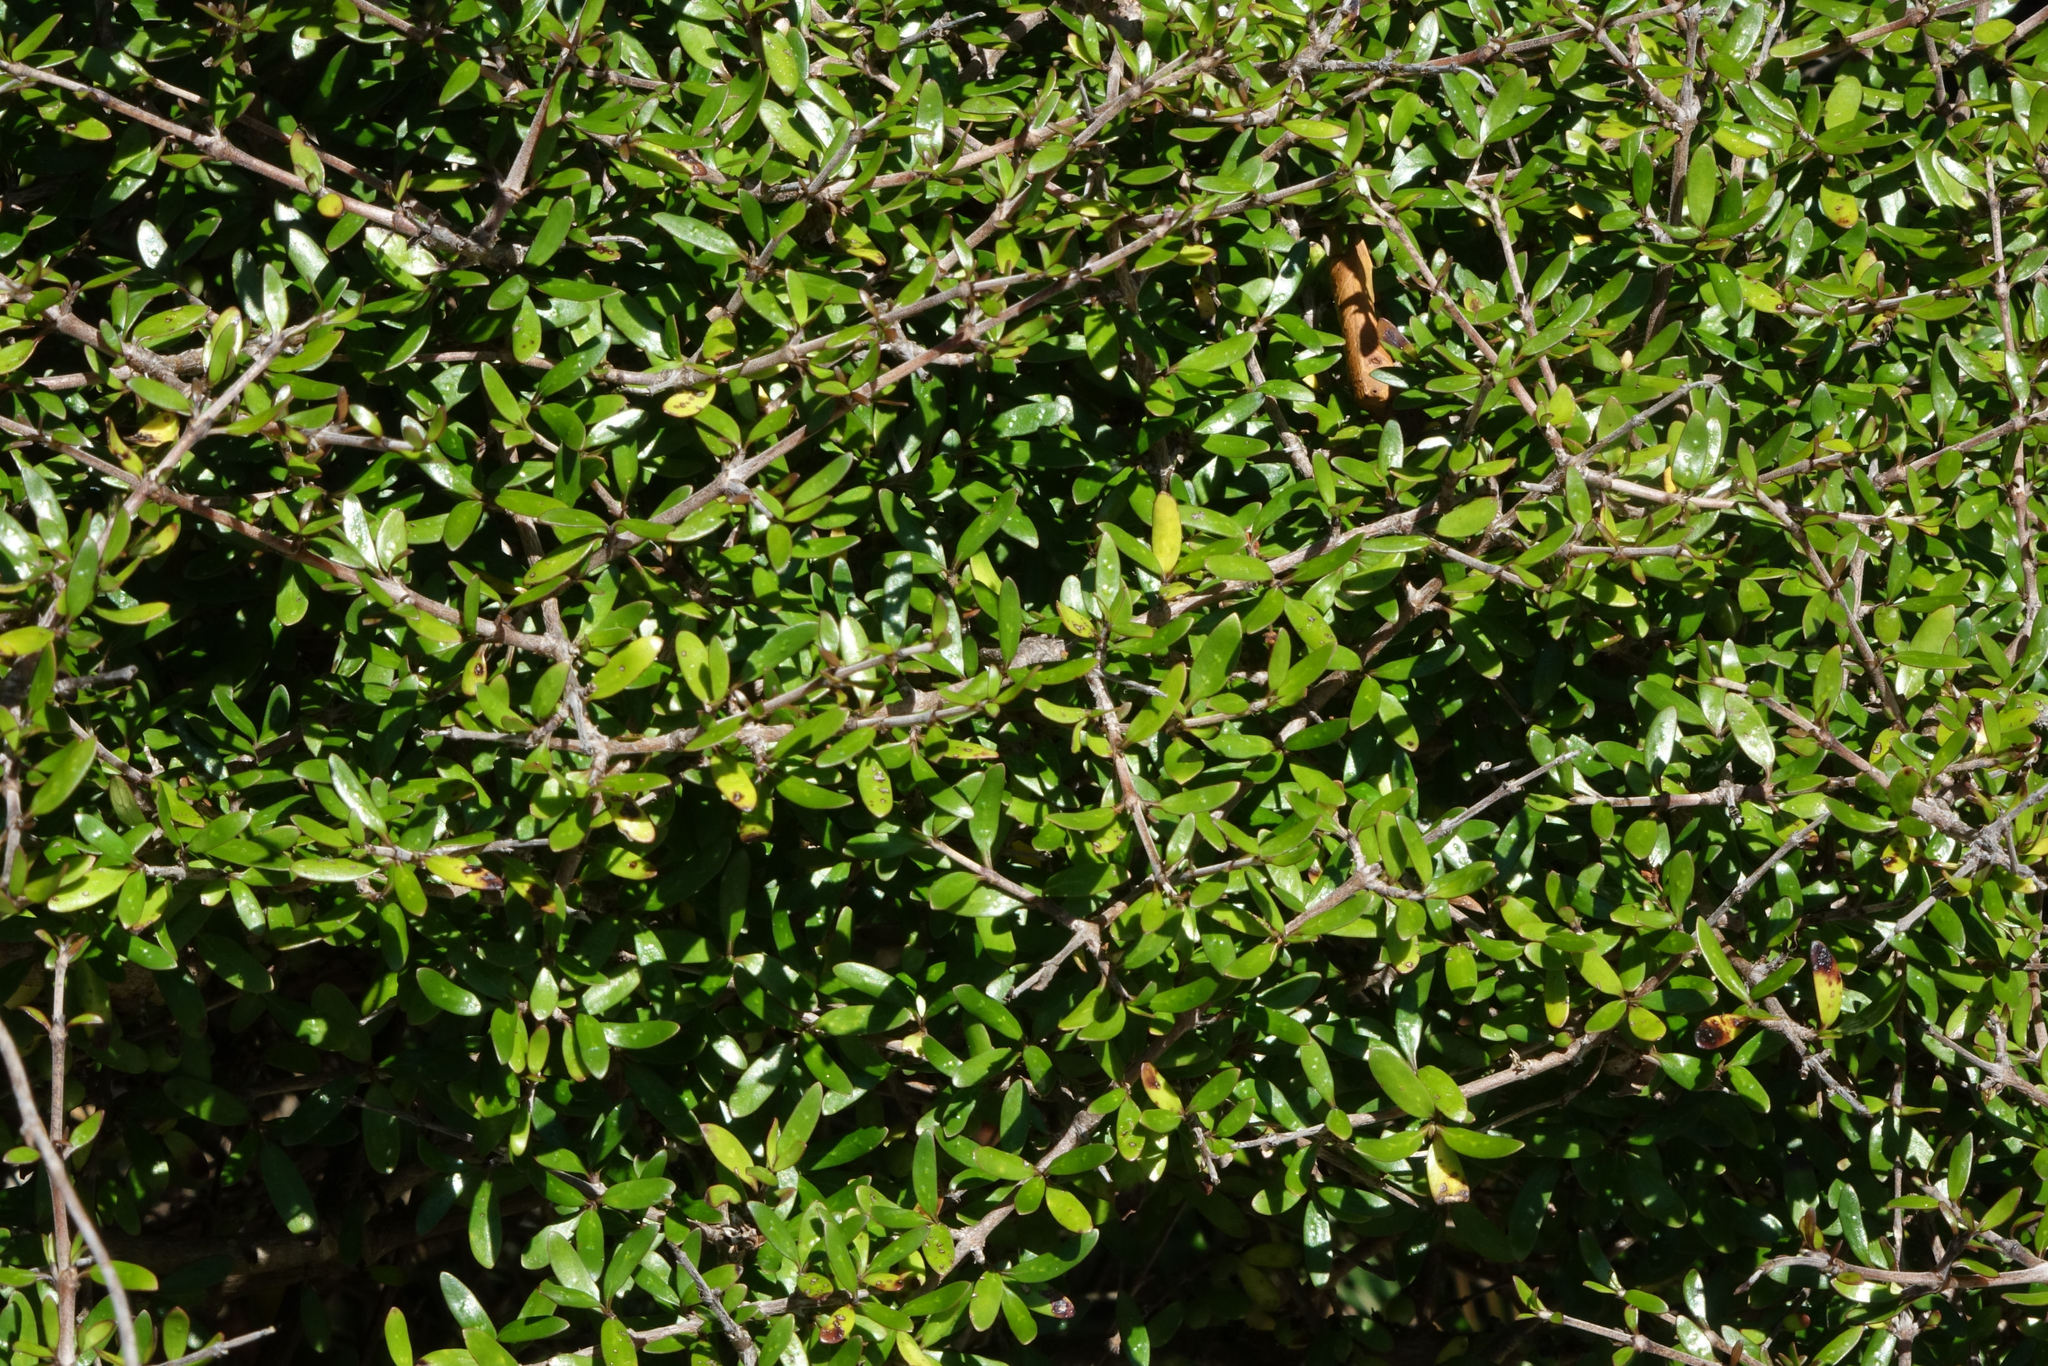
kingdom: Plantae
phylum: Tracheophyta
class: Magnoliopsida
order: Gentianales
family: Rubiaceae
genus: Coprosma
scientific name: Coprosma propinqua
